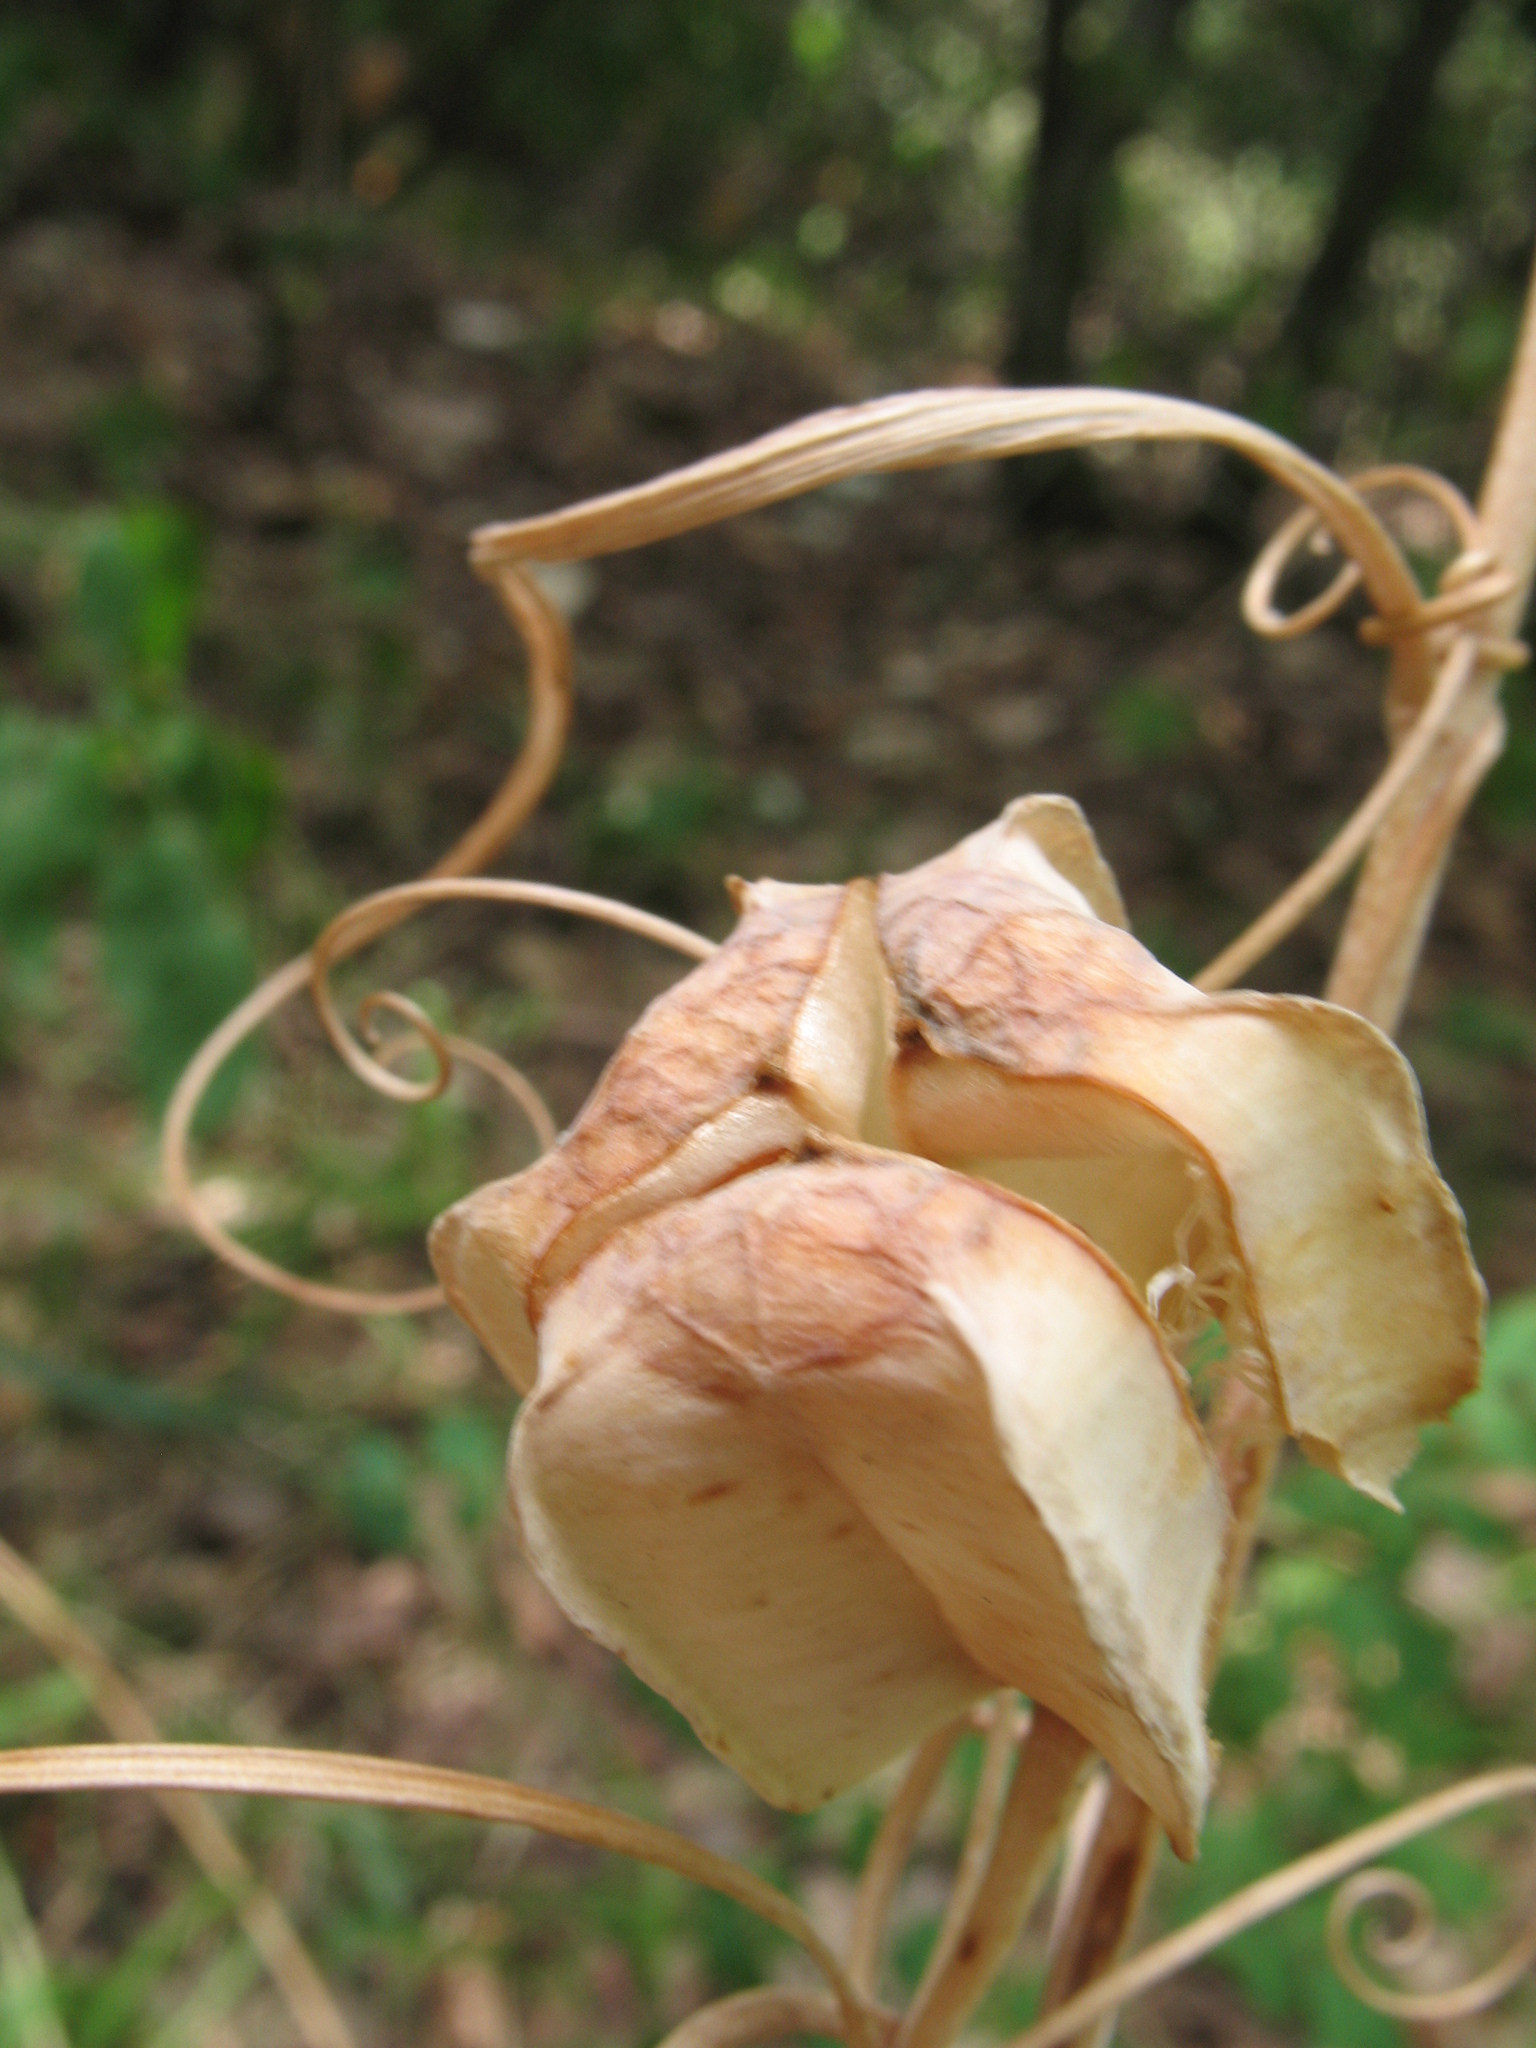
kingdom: Plantae
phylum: Tracheophyta
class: Liliopsida
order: Liliales
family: Liliaceae
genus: Fritillaria
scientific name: Fritillaria ruthenica
